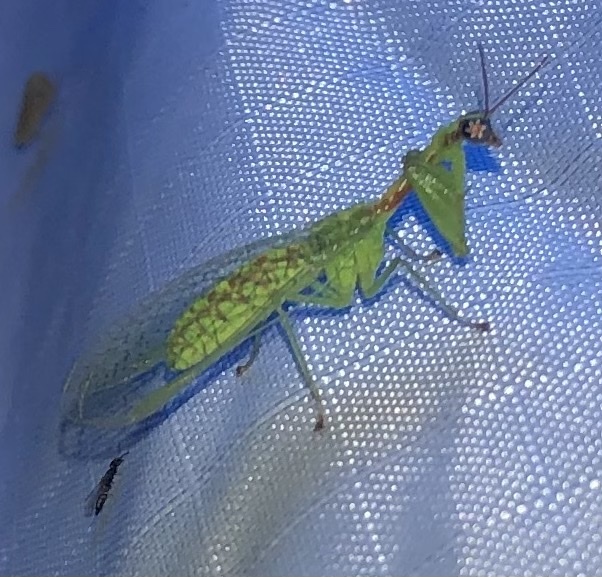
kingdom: Animalia
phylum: Arthropoda
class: Insecta
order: Neuroptera
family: Mantispidae
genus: Zeugomantispa
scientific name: Zeugomantispa minuta
